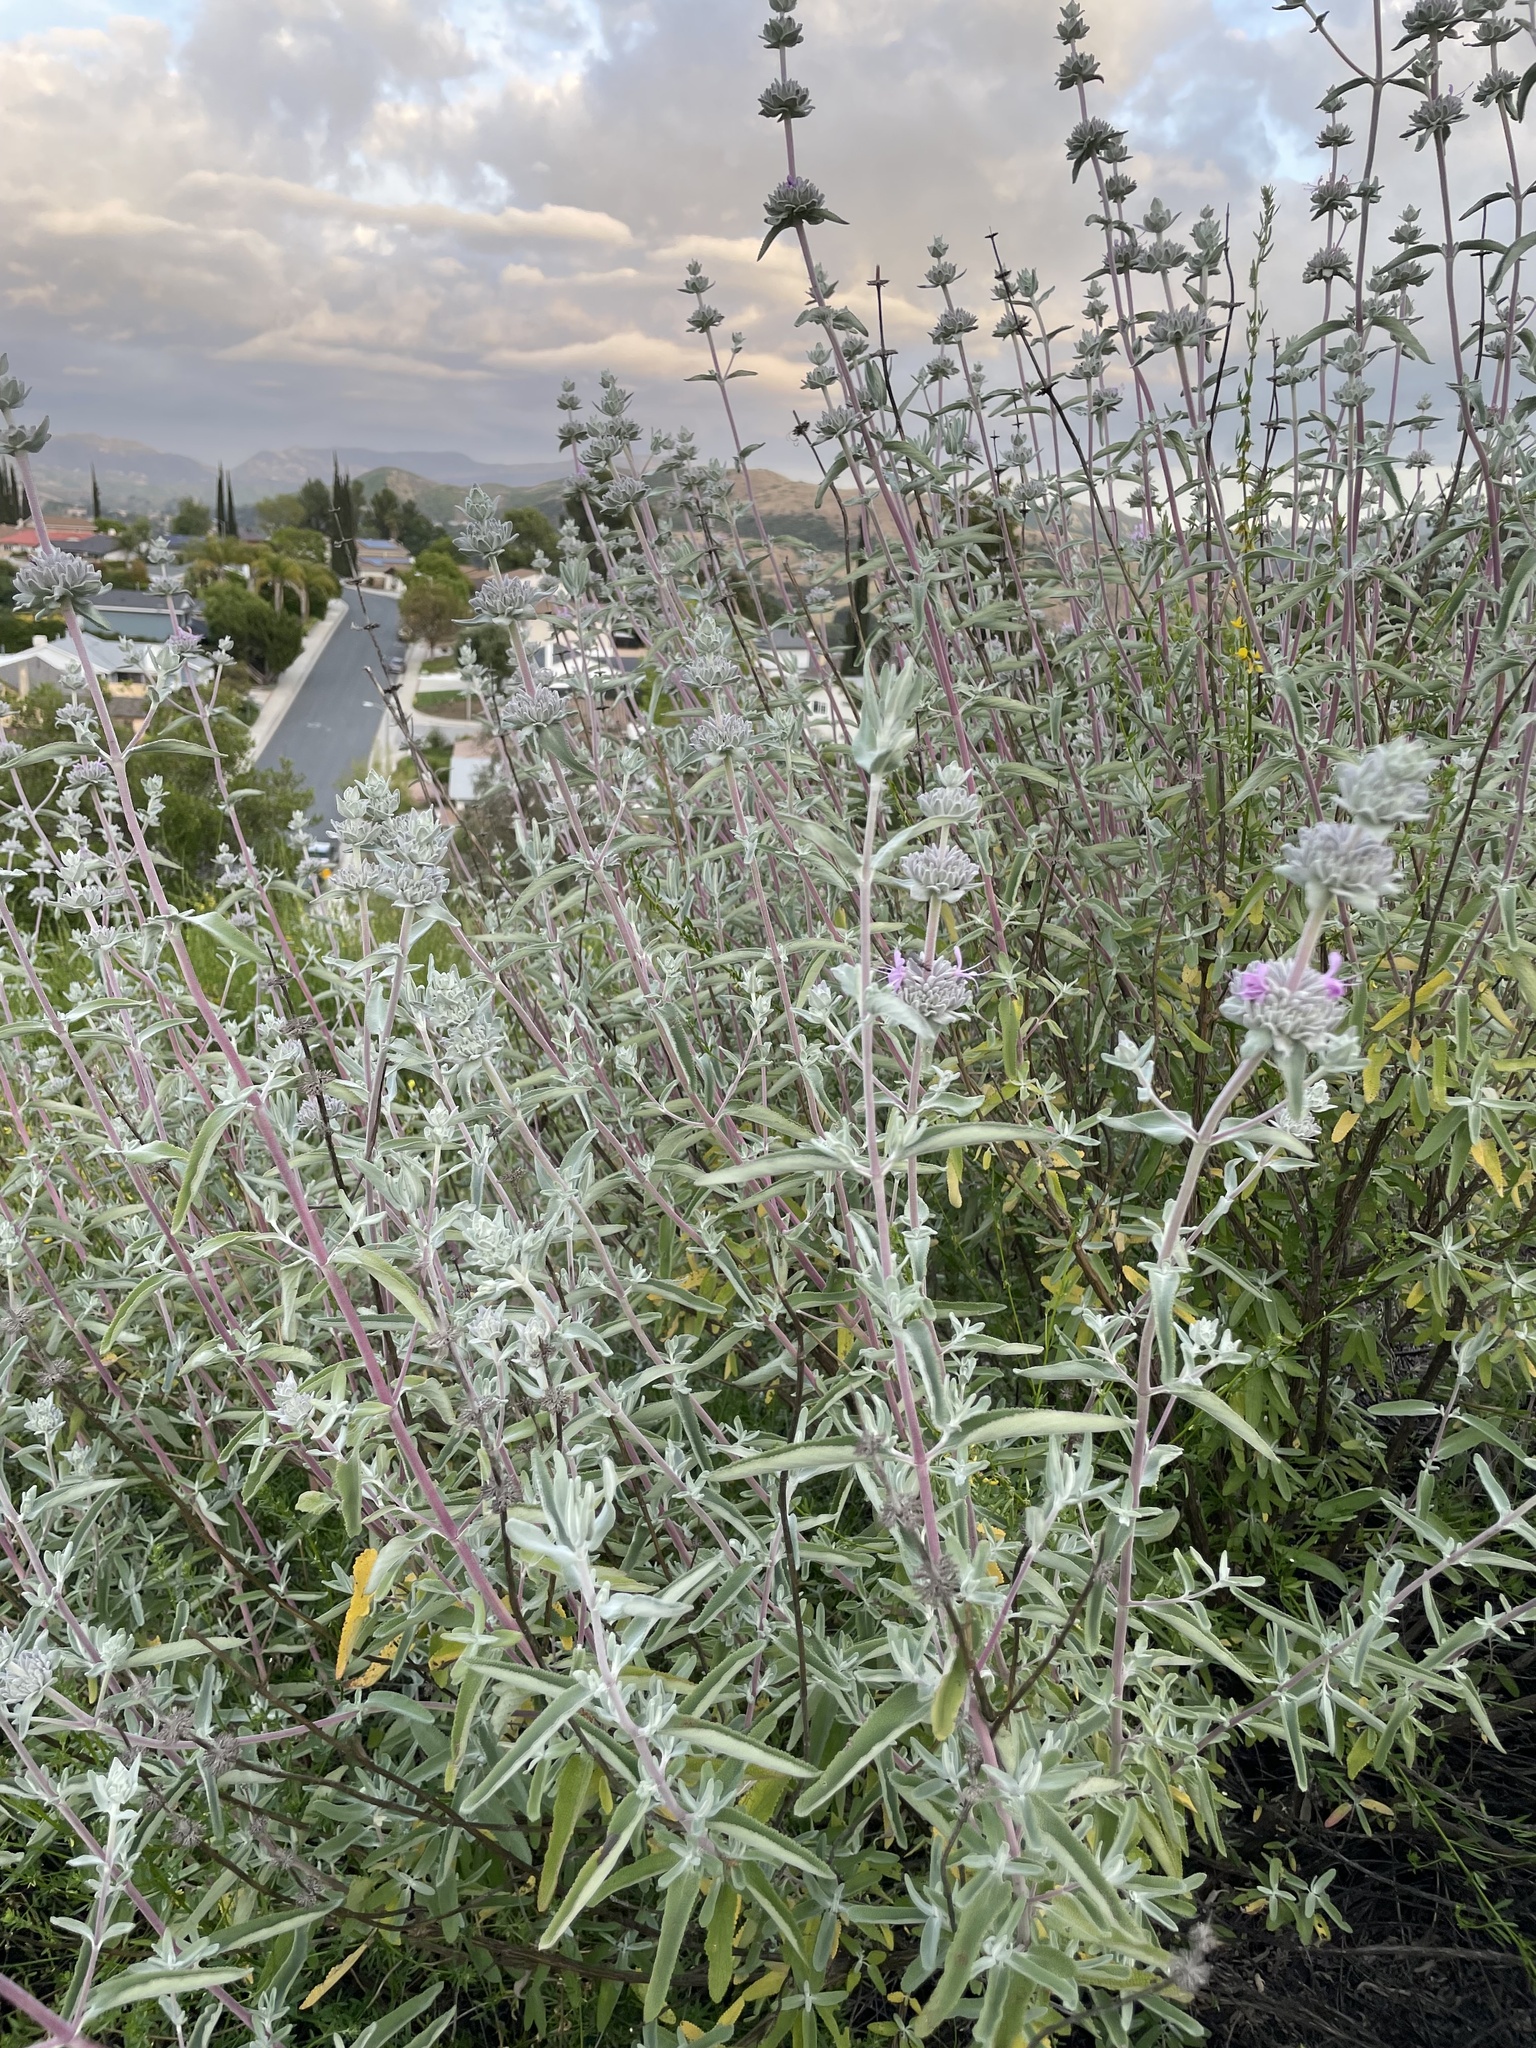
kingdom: Plantae
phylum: Tracheophyta
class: Magnoliopsida
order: Lamiales
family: Lamiaceae
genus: Salvia
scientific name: Salvia leucophylla
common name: Purple sage
